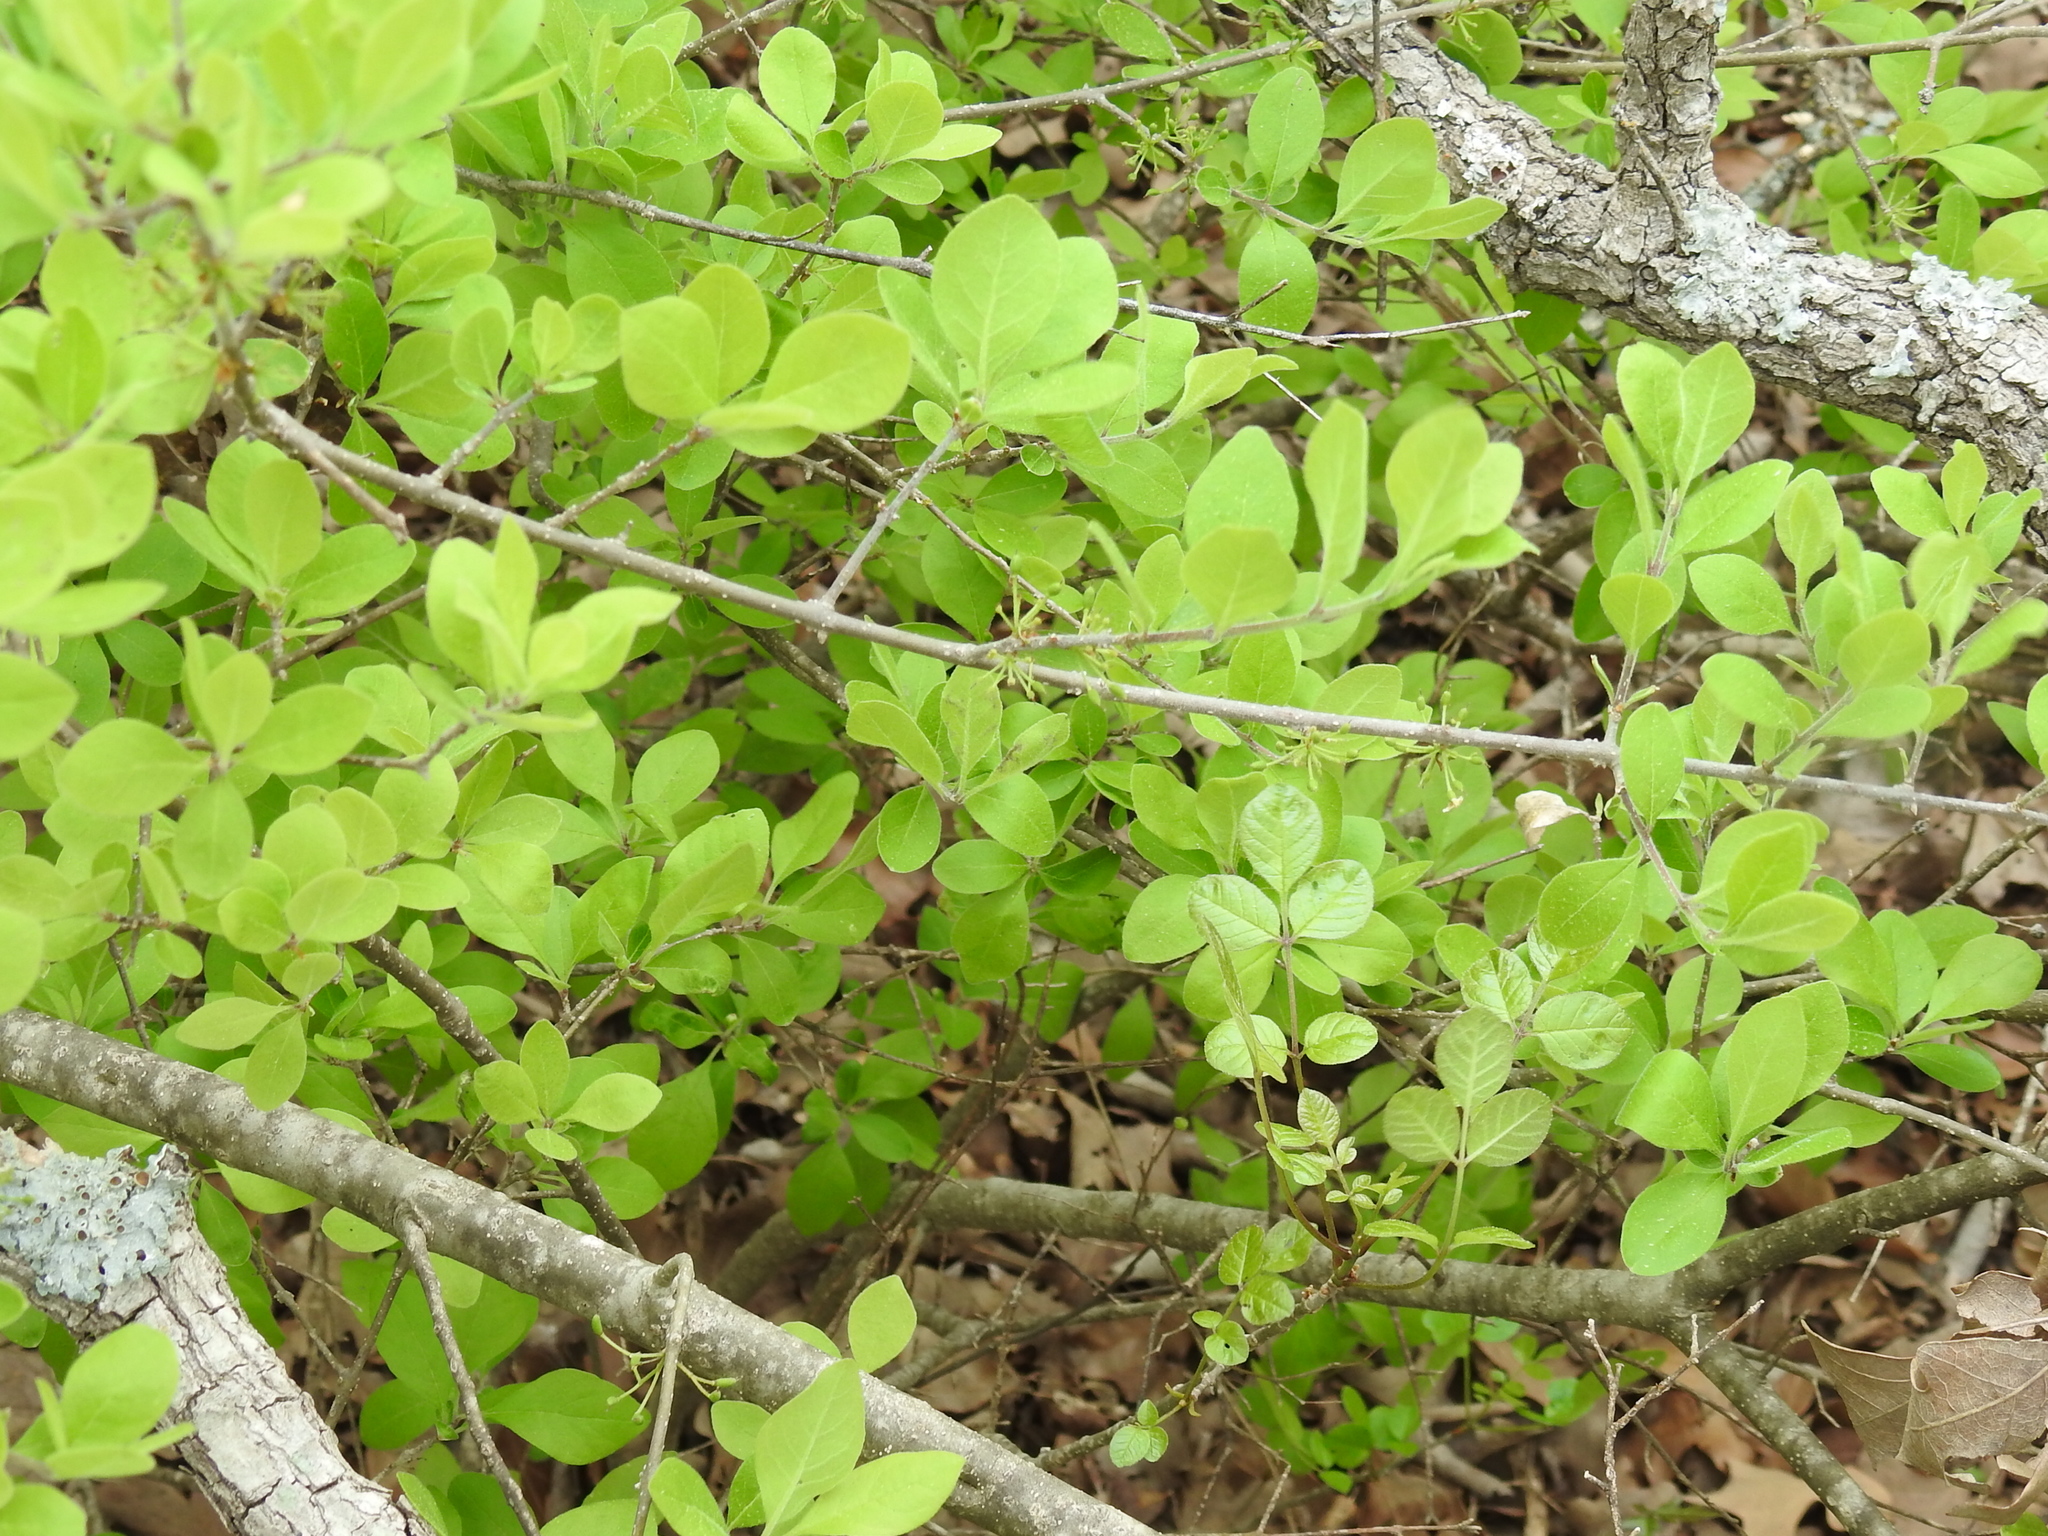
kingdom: Plantae
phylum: Tracheophyta
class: Magnoliopsida
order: Lamiales
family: Oleaceae
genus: Forestiera
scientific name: Forestiera pubescens
